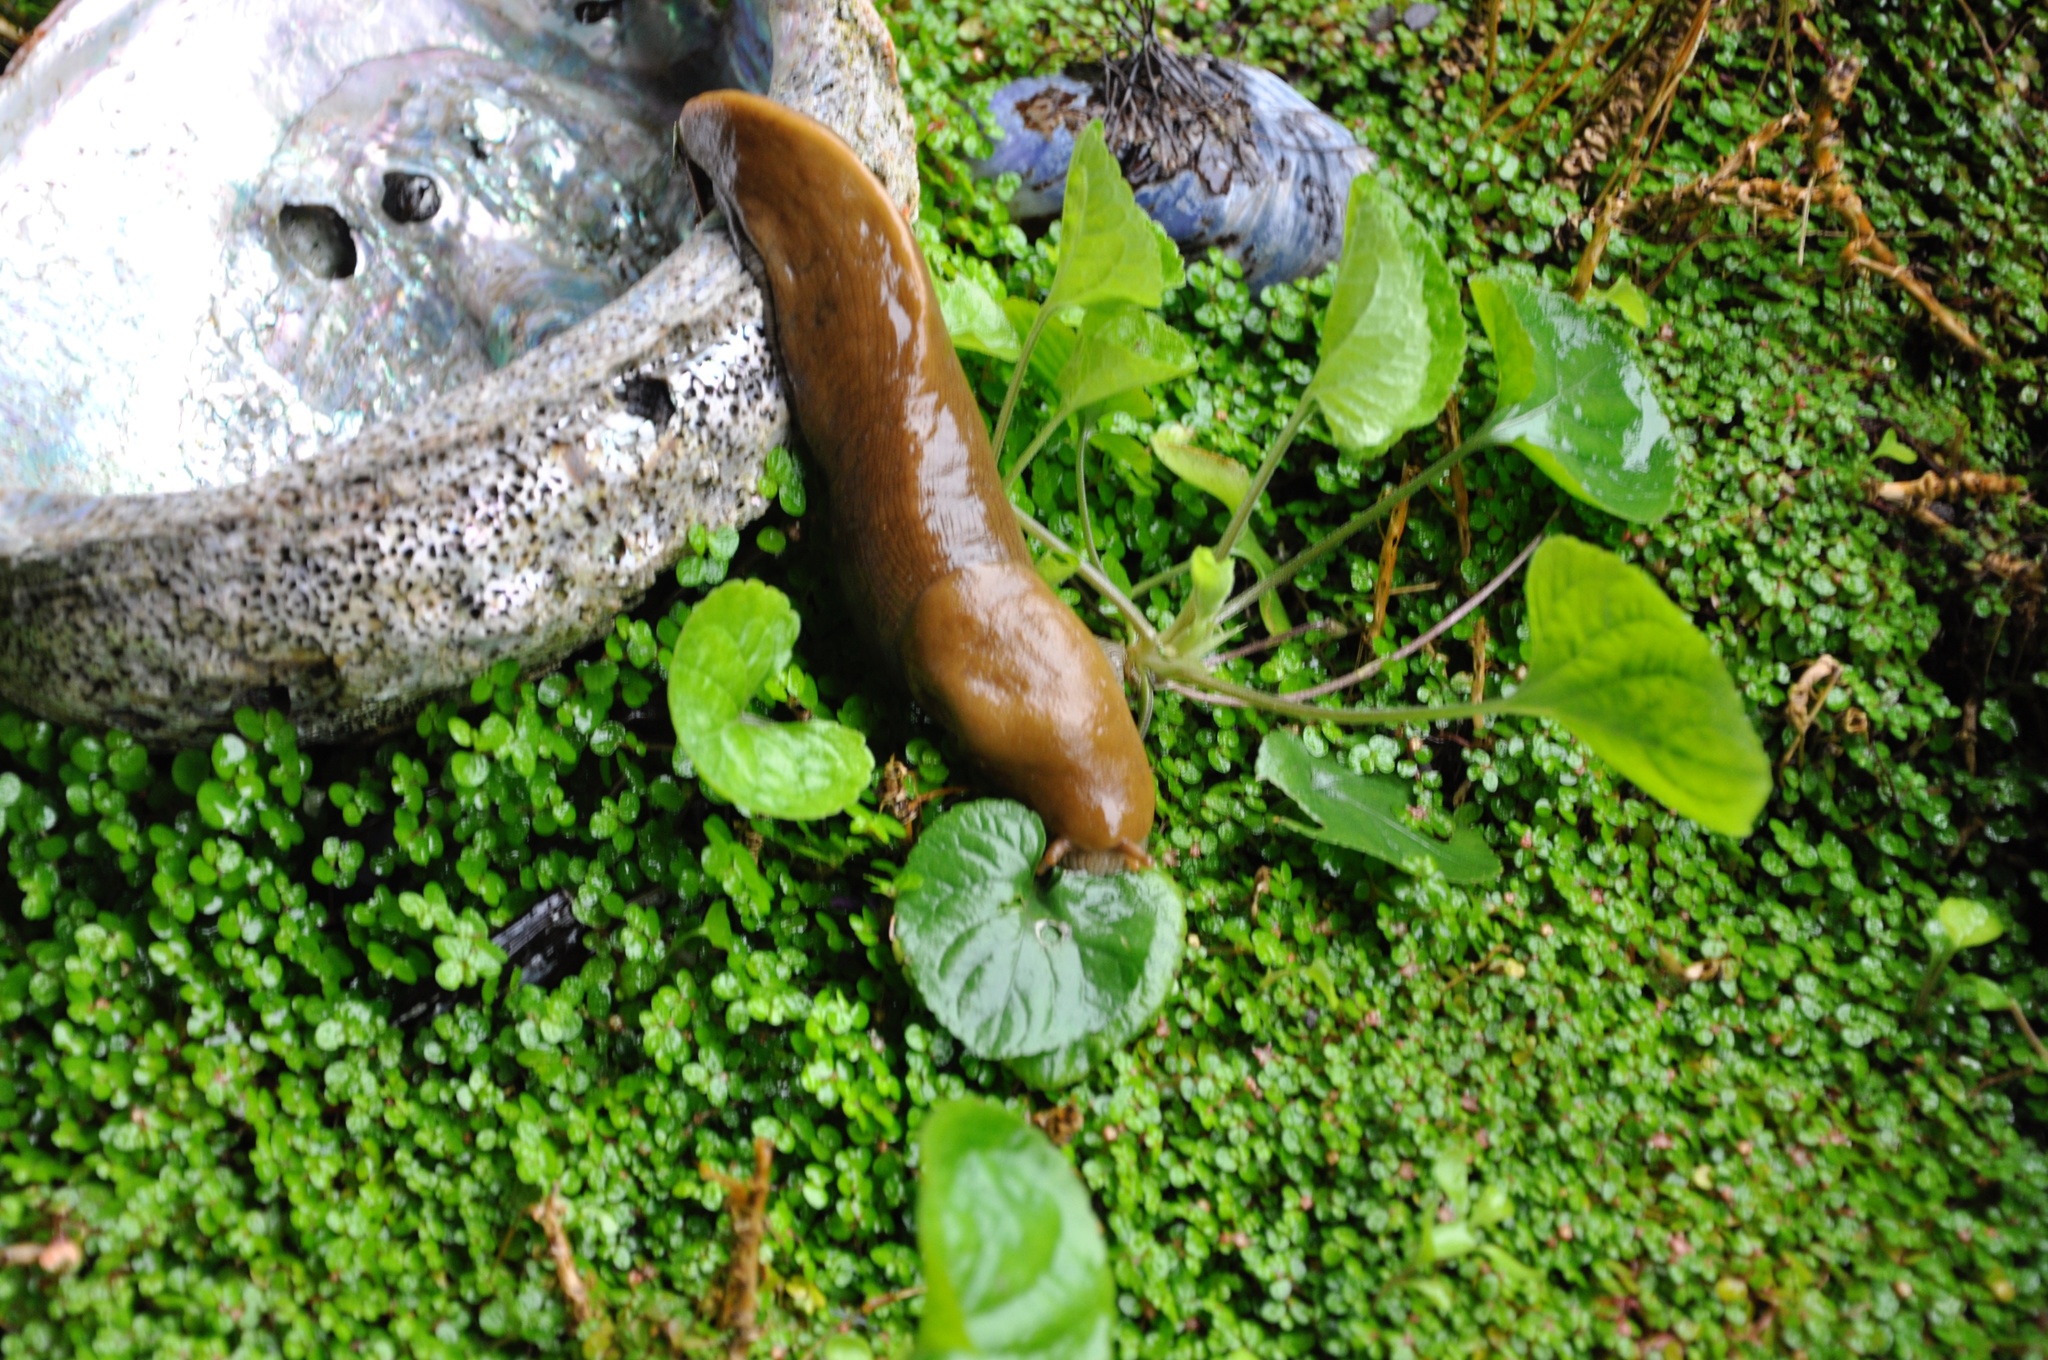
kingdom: Animalia
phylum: Mollusca
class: Gastropoda
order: Stylommatophora
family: Ariolimacidae
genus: Ariolimax
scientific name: Ariolimax buttoni
